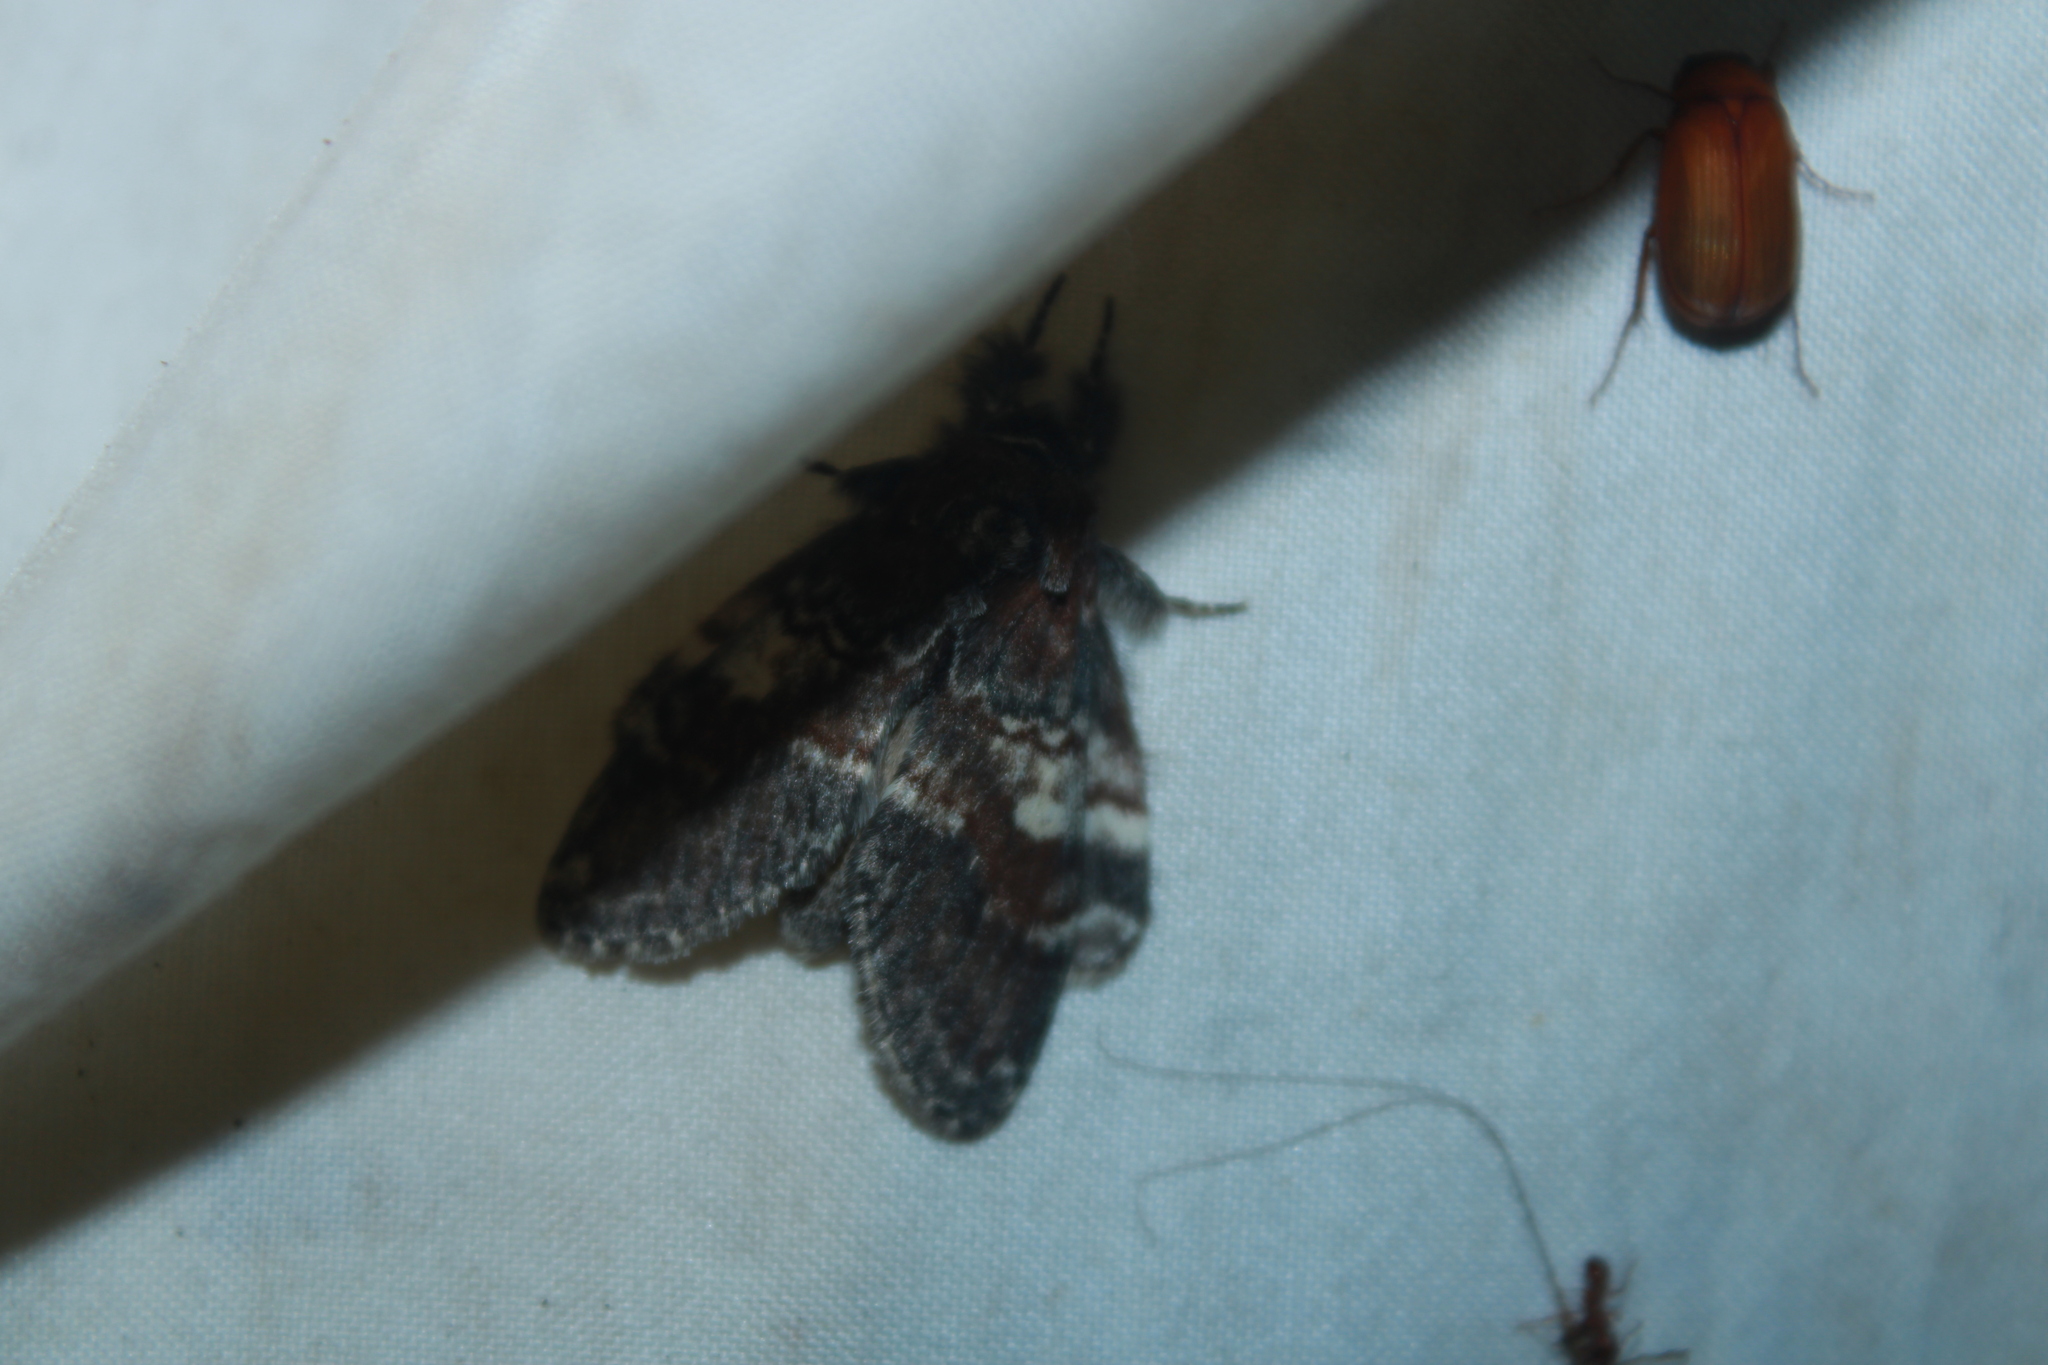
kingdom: Animalia
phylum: Arthropoda
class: Insecta
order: Lepidoptera
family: Notodontidae
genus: Peridea
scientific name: Peridea ferruginea
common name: Chocolate prominent
